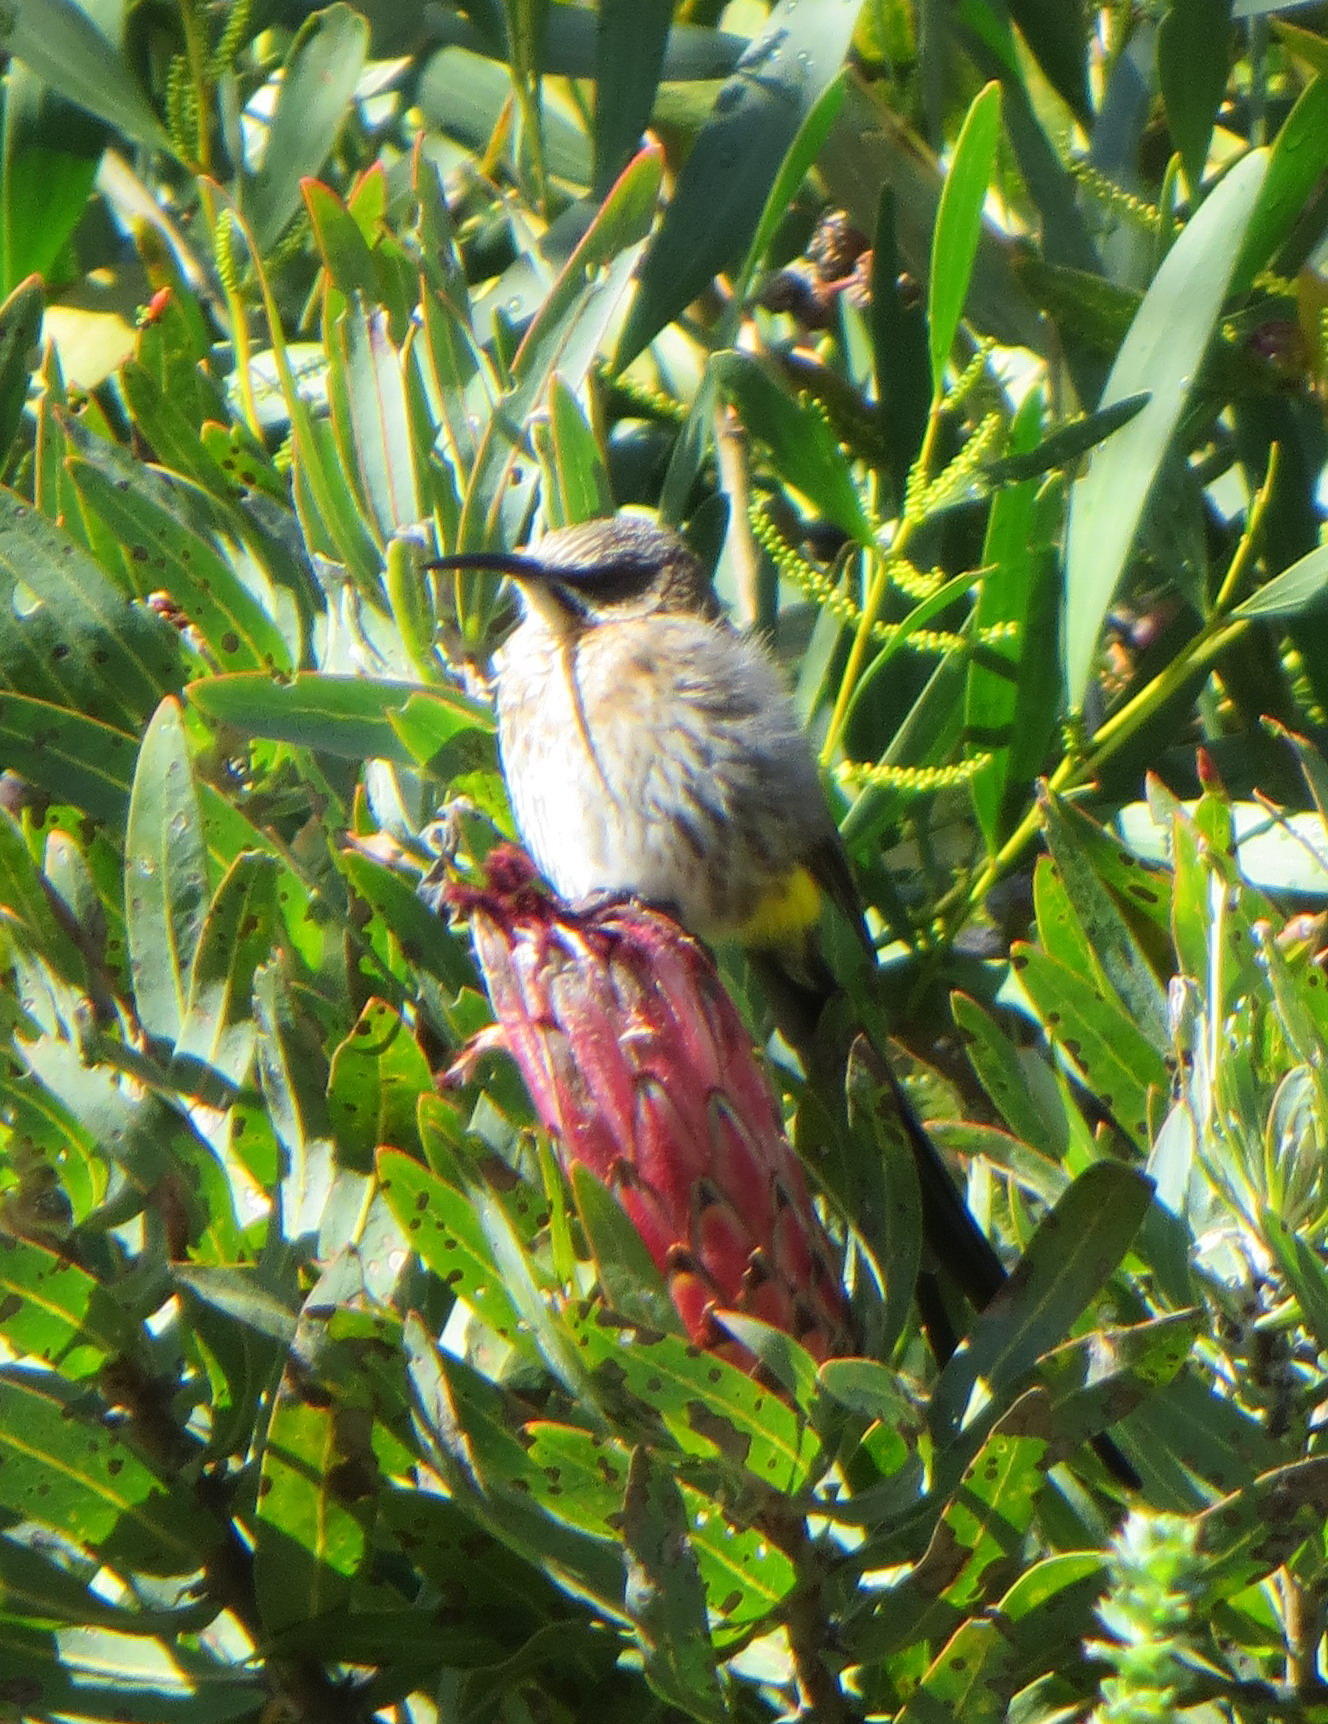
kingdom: Animalia
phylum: Chordata
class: Aves
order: Passeriformes
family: Promeropidae
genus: Promerops
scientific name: Promerops cafer
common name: Cape sugarbird
